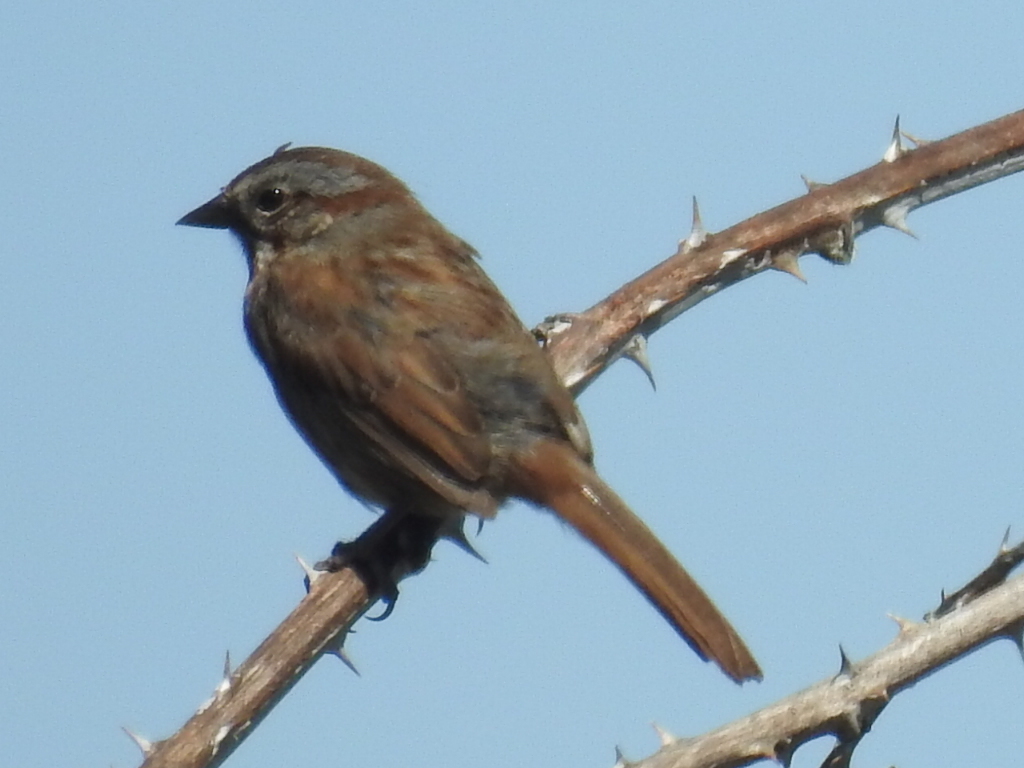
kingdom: Animalia
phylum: Chordata
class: Aves
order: Passeriformes
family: Passerellidae
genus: Melospiza
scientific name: Melospiza melodia
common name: Song sparrow
